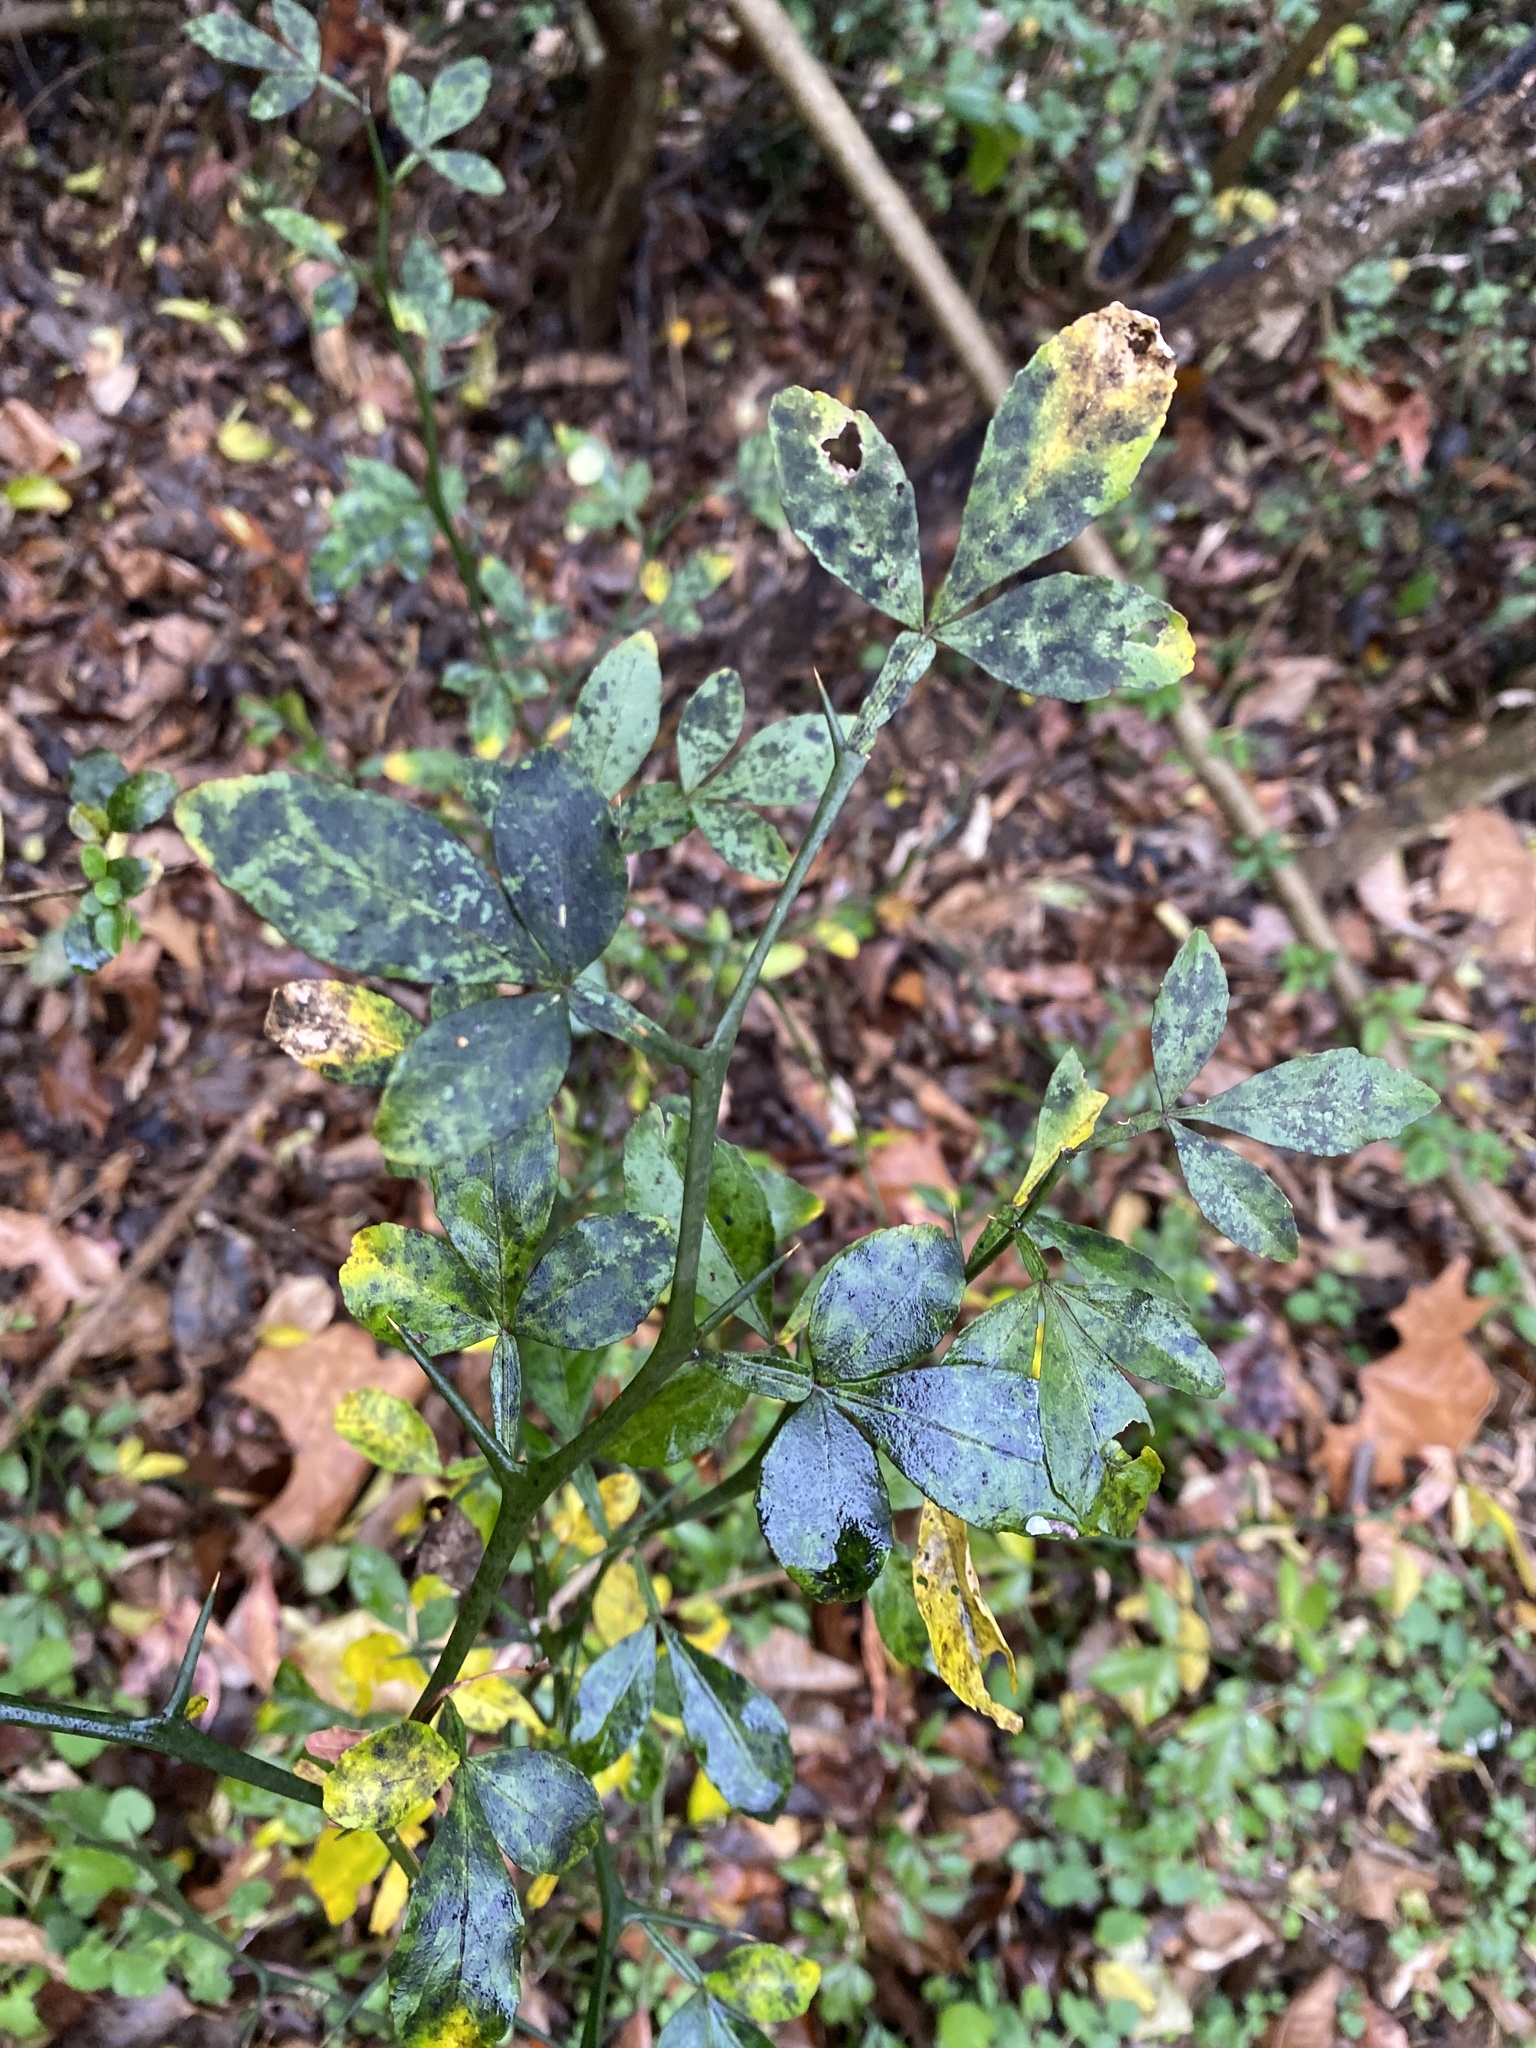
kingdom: Plantae
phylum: Tracheophyta
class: Magnoliopsida
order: Sapindales
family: Rutaceae
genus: Citrus
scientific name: Citrus trifoliata
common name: Japanese bitter-orange
